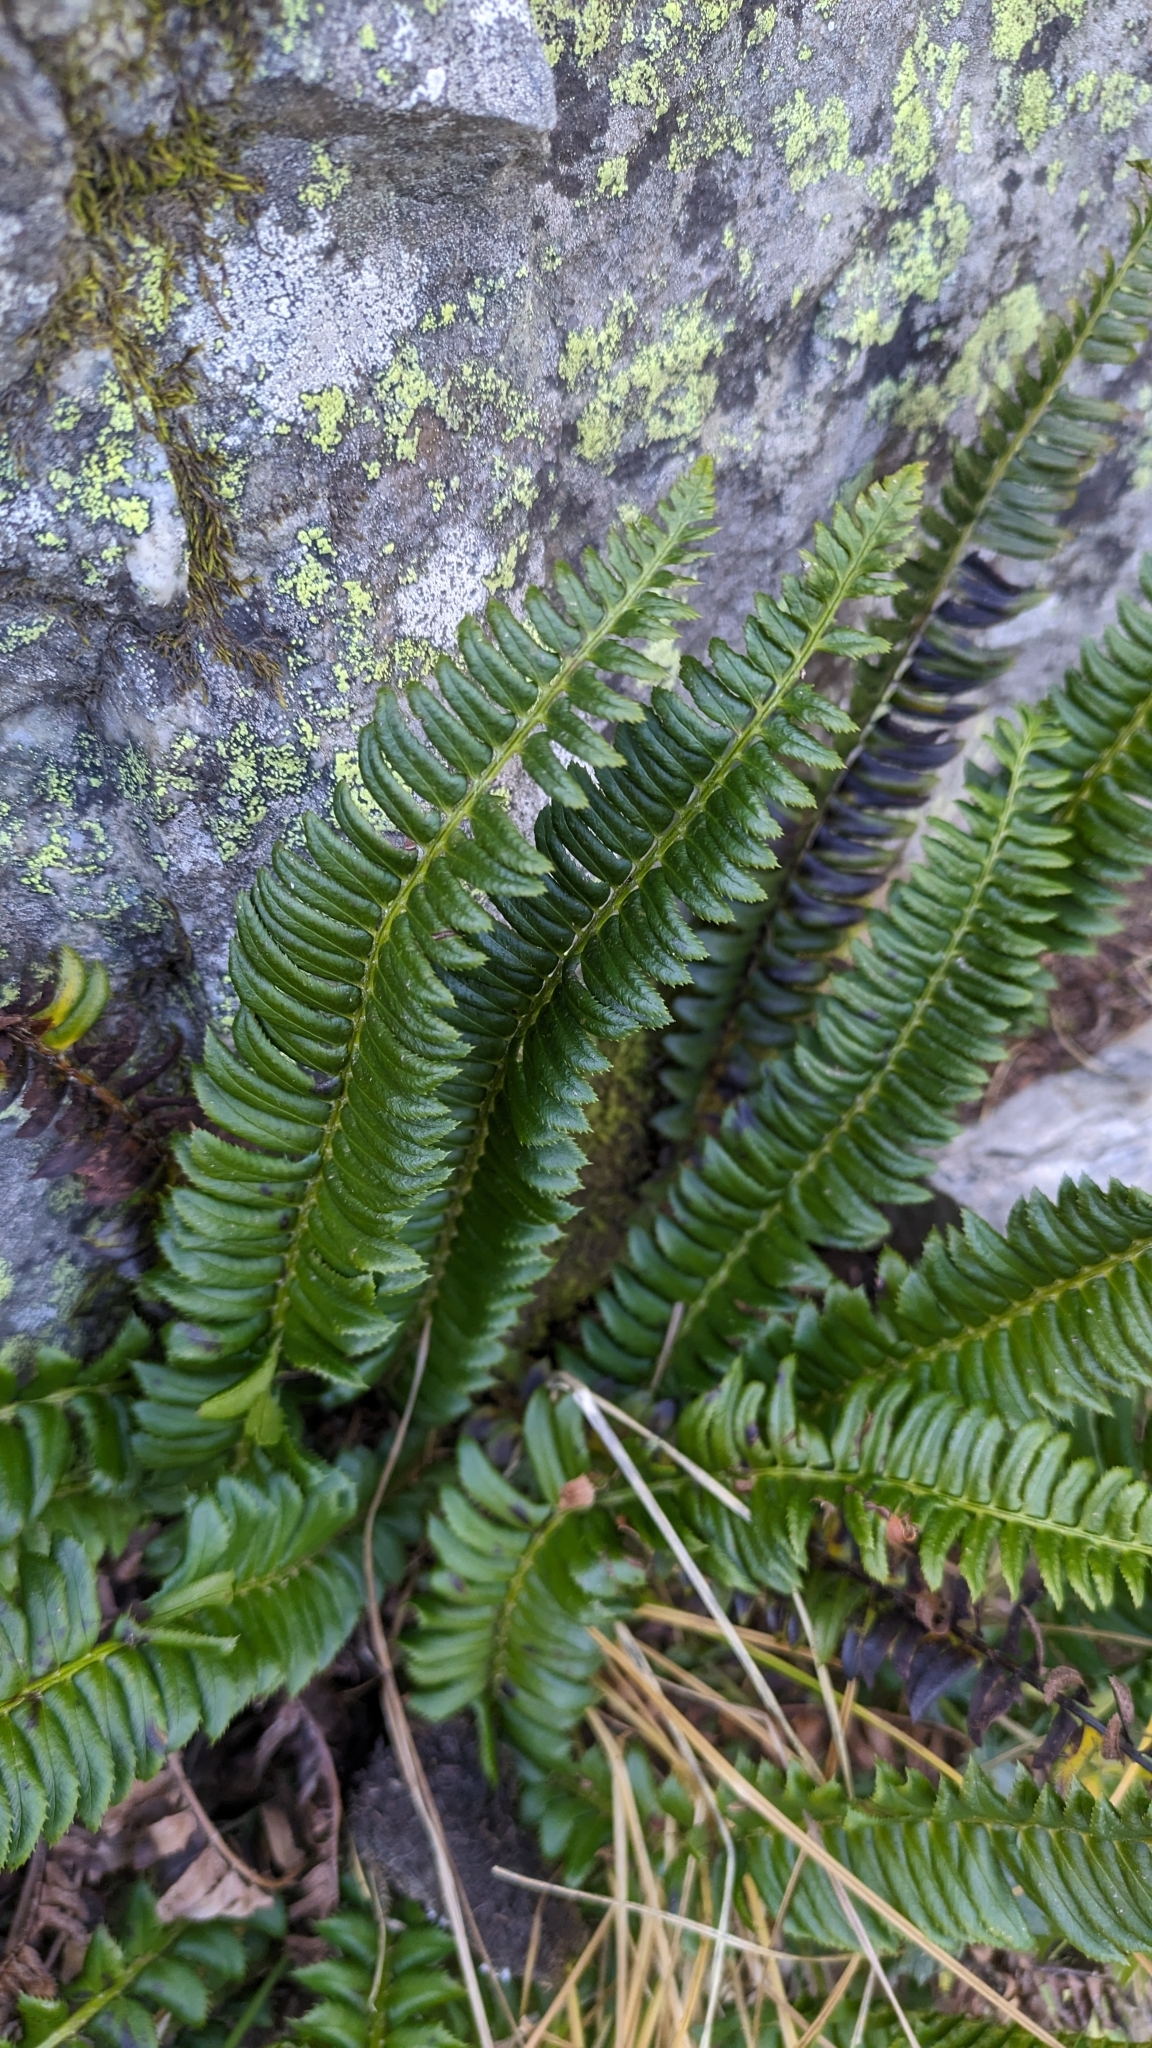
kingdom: Plantae
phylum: Tracheophyta
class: Polypodiopsida
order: Polypodiales
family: Dryopteridaceae
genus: Polystichum
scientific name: Polystichum lonchitis
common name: Holly fern
